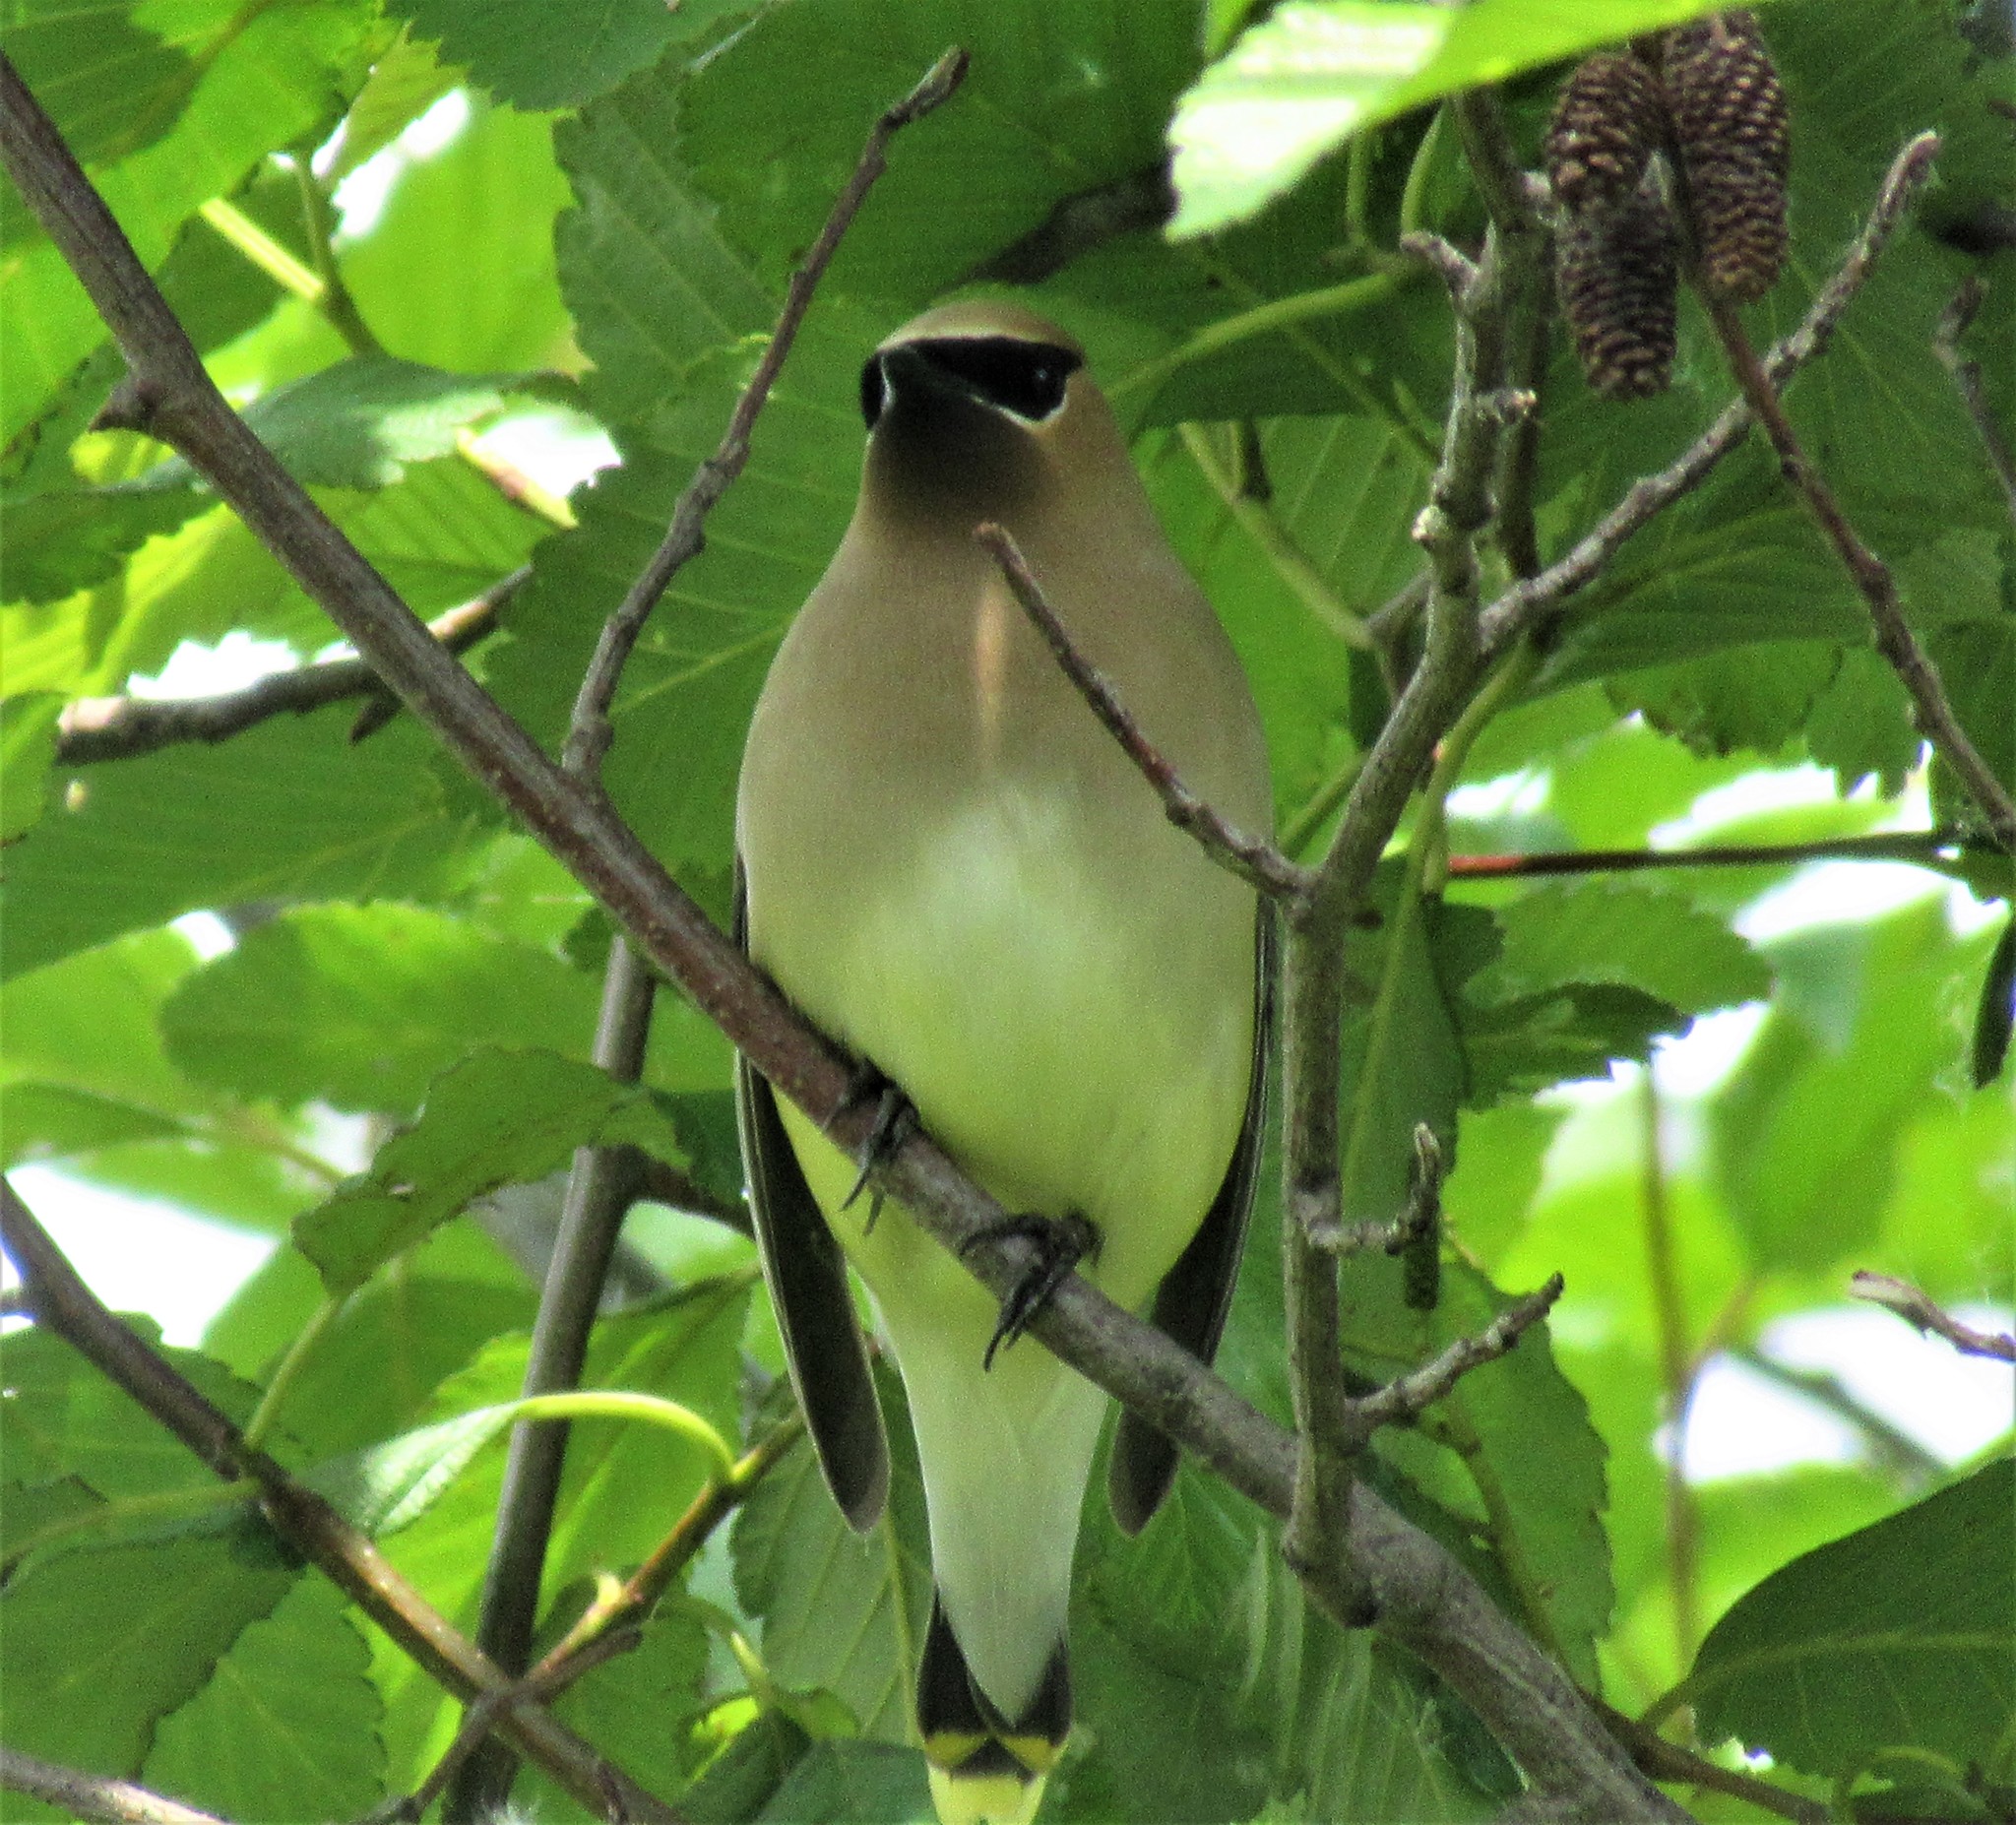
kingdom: Animalia
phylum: Chordata
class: Aves
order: Passeriformes
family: Bombycillidae
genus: Bombycilla
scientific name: Bombycilla cedrorum
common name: Cedar waxwing
